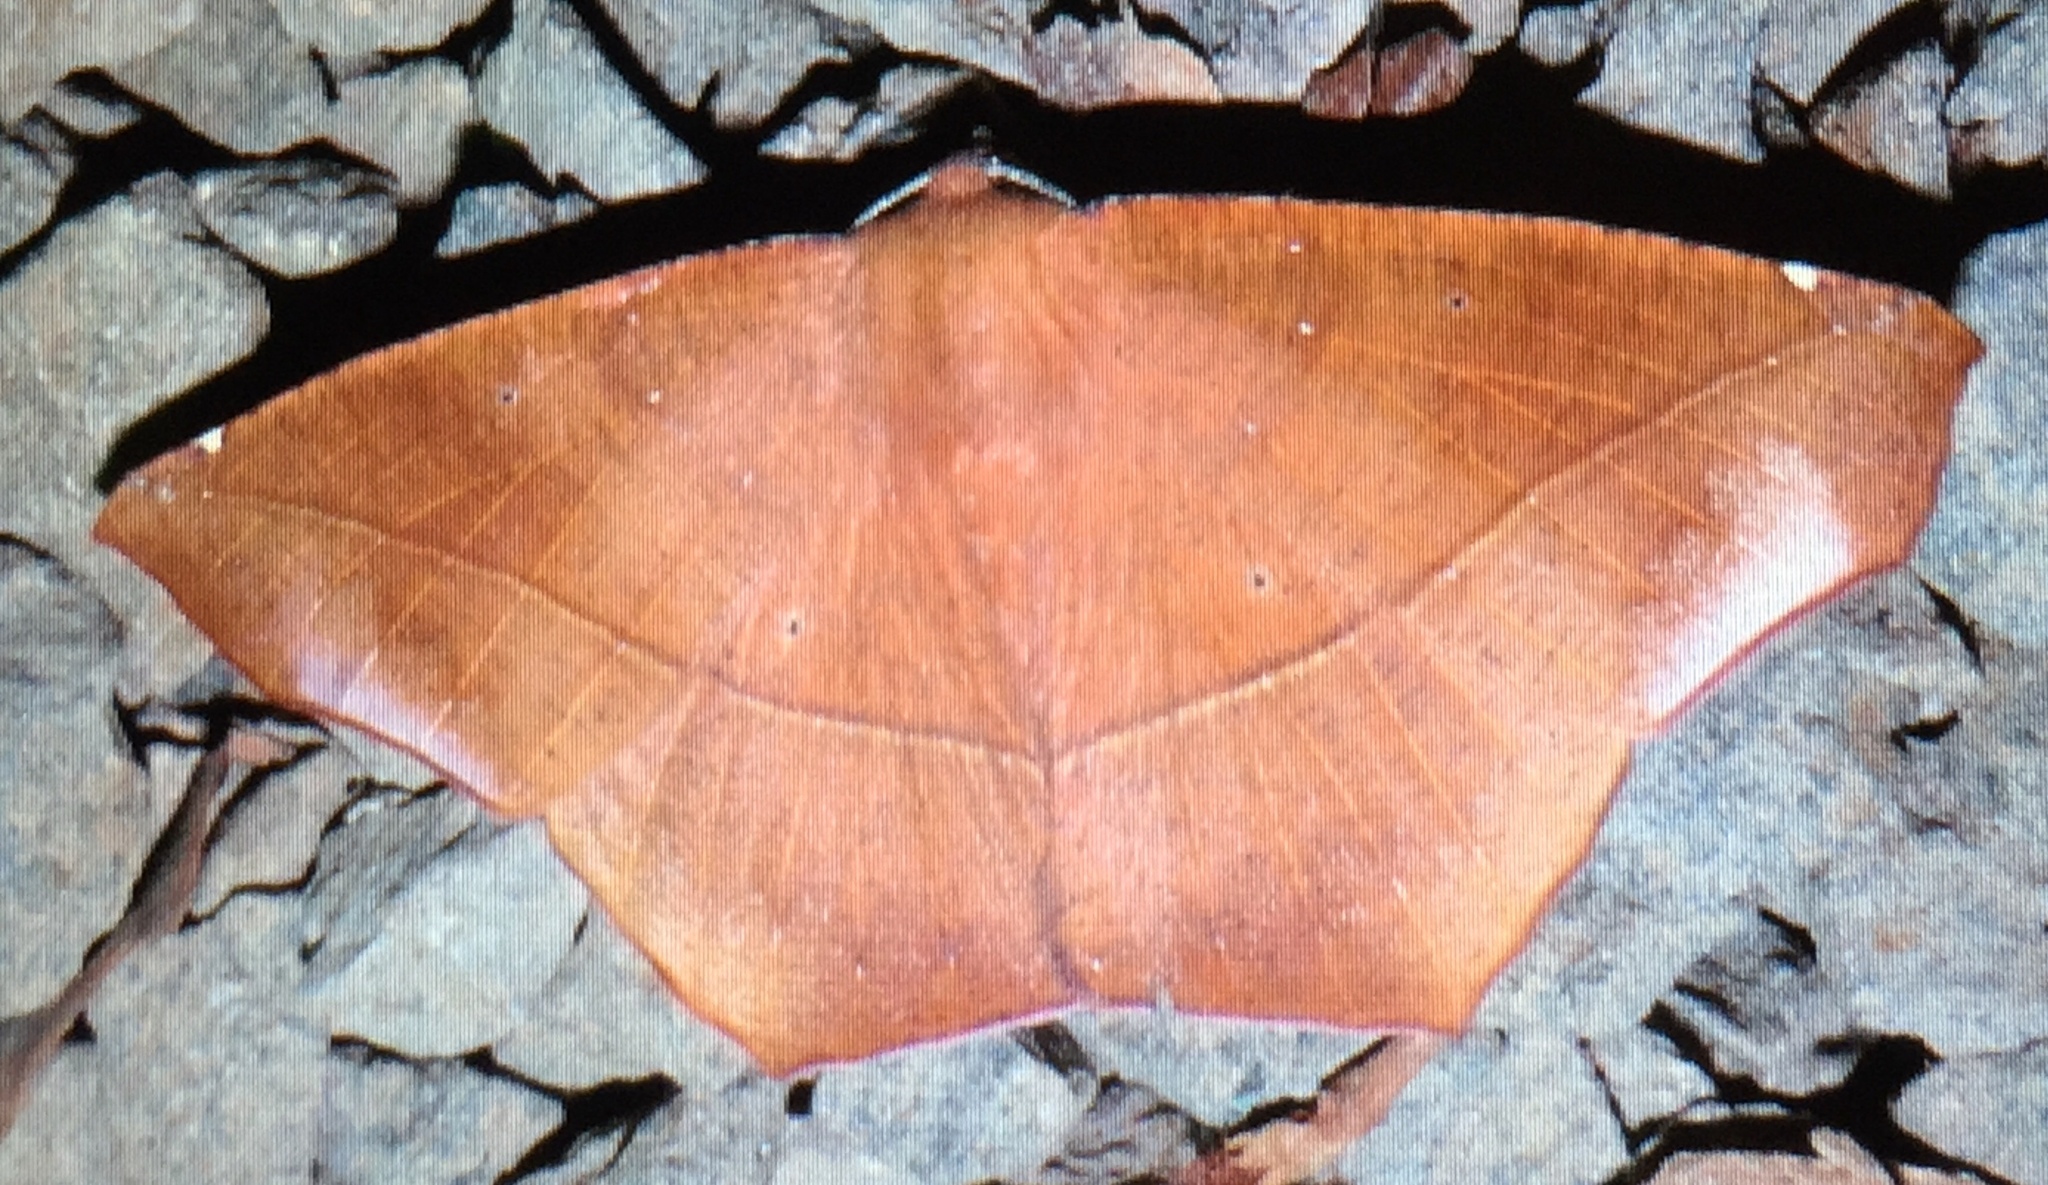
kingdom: Animalia
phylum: Arthropoda
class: Insecta
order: Lepidoptera
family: Geometridae
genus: Microgonia
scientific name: Microgonia perfulvata
